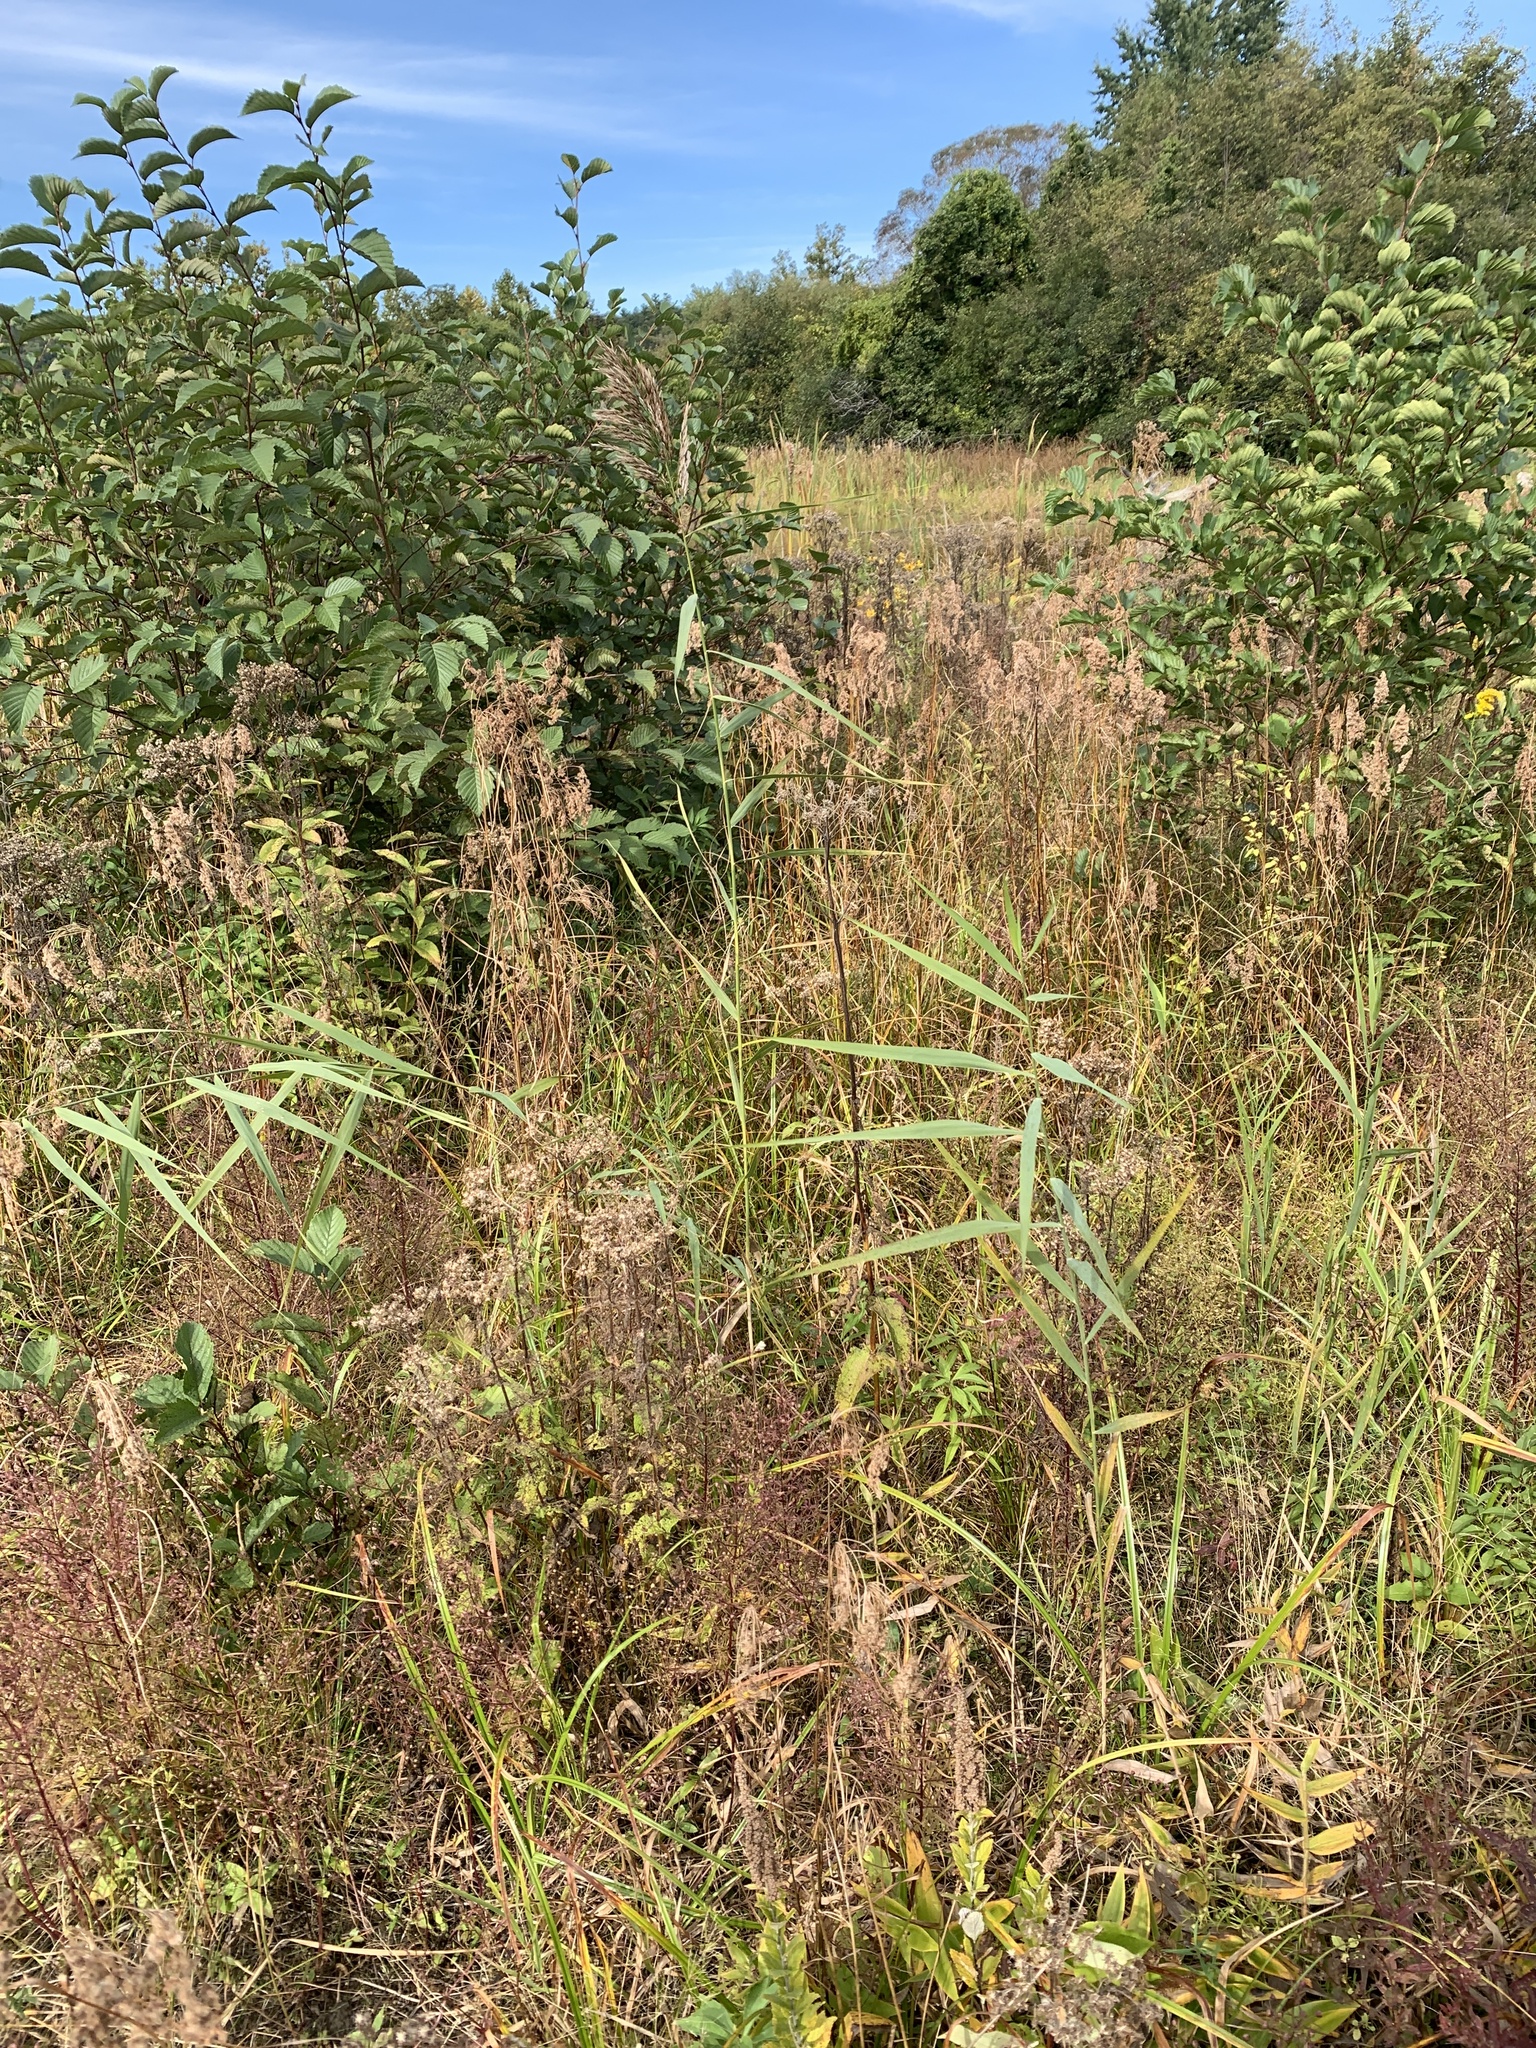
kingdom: Plantae
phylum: Tracheophyta
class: Liliopsida
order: Poales
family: Poaceae
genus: Phragmites
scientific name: Phragmites australis
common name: Common reed
